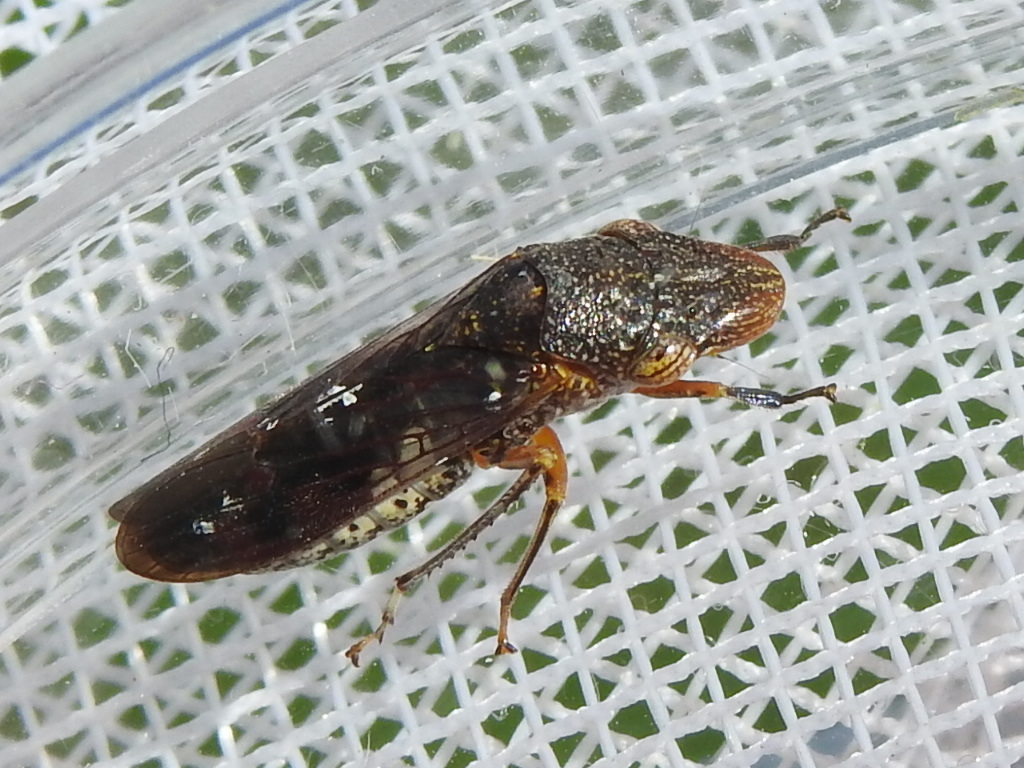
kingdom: Animalia
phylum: Arthropoda
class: Insecta
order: Hemiptera
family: Cicadellidae
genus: Homalodisca
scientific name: Homalodisca vitripennis
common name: Glassy-winged sharpshooter
